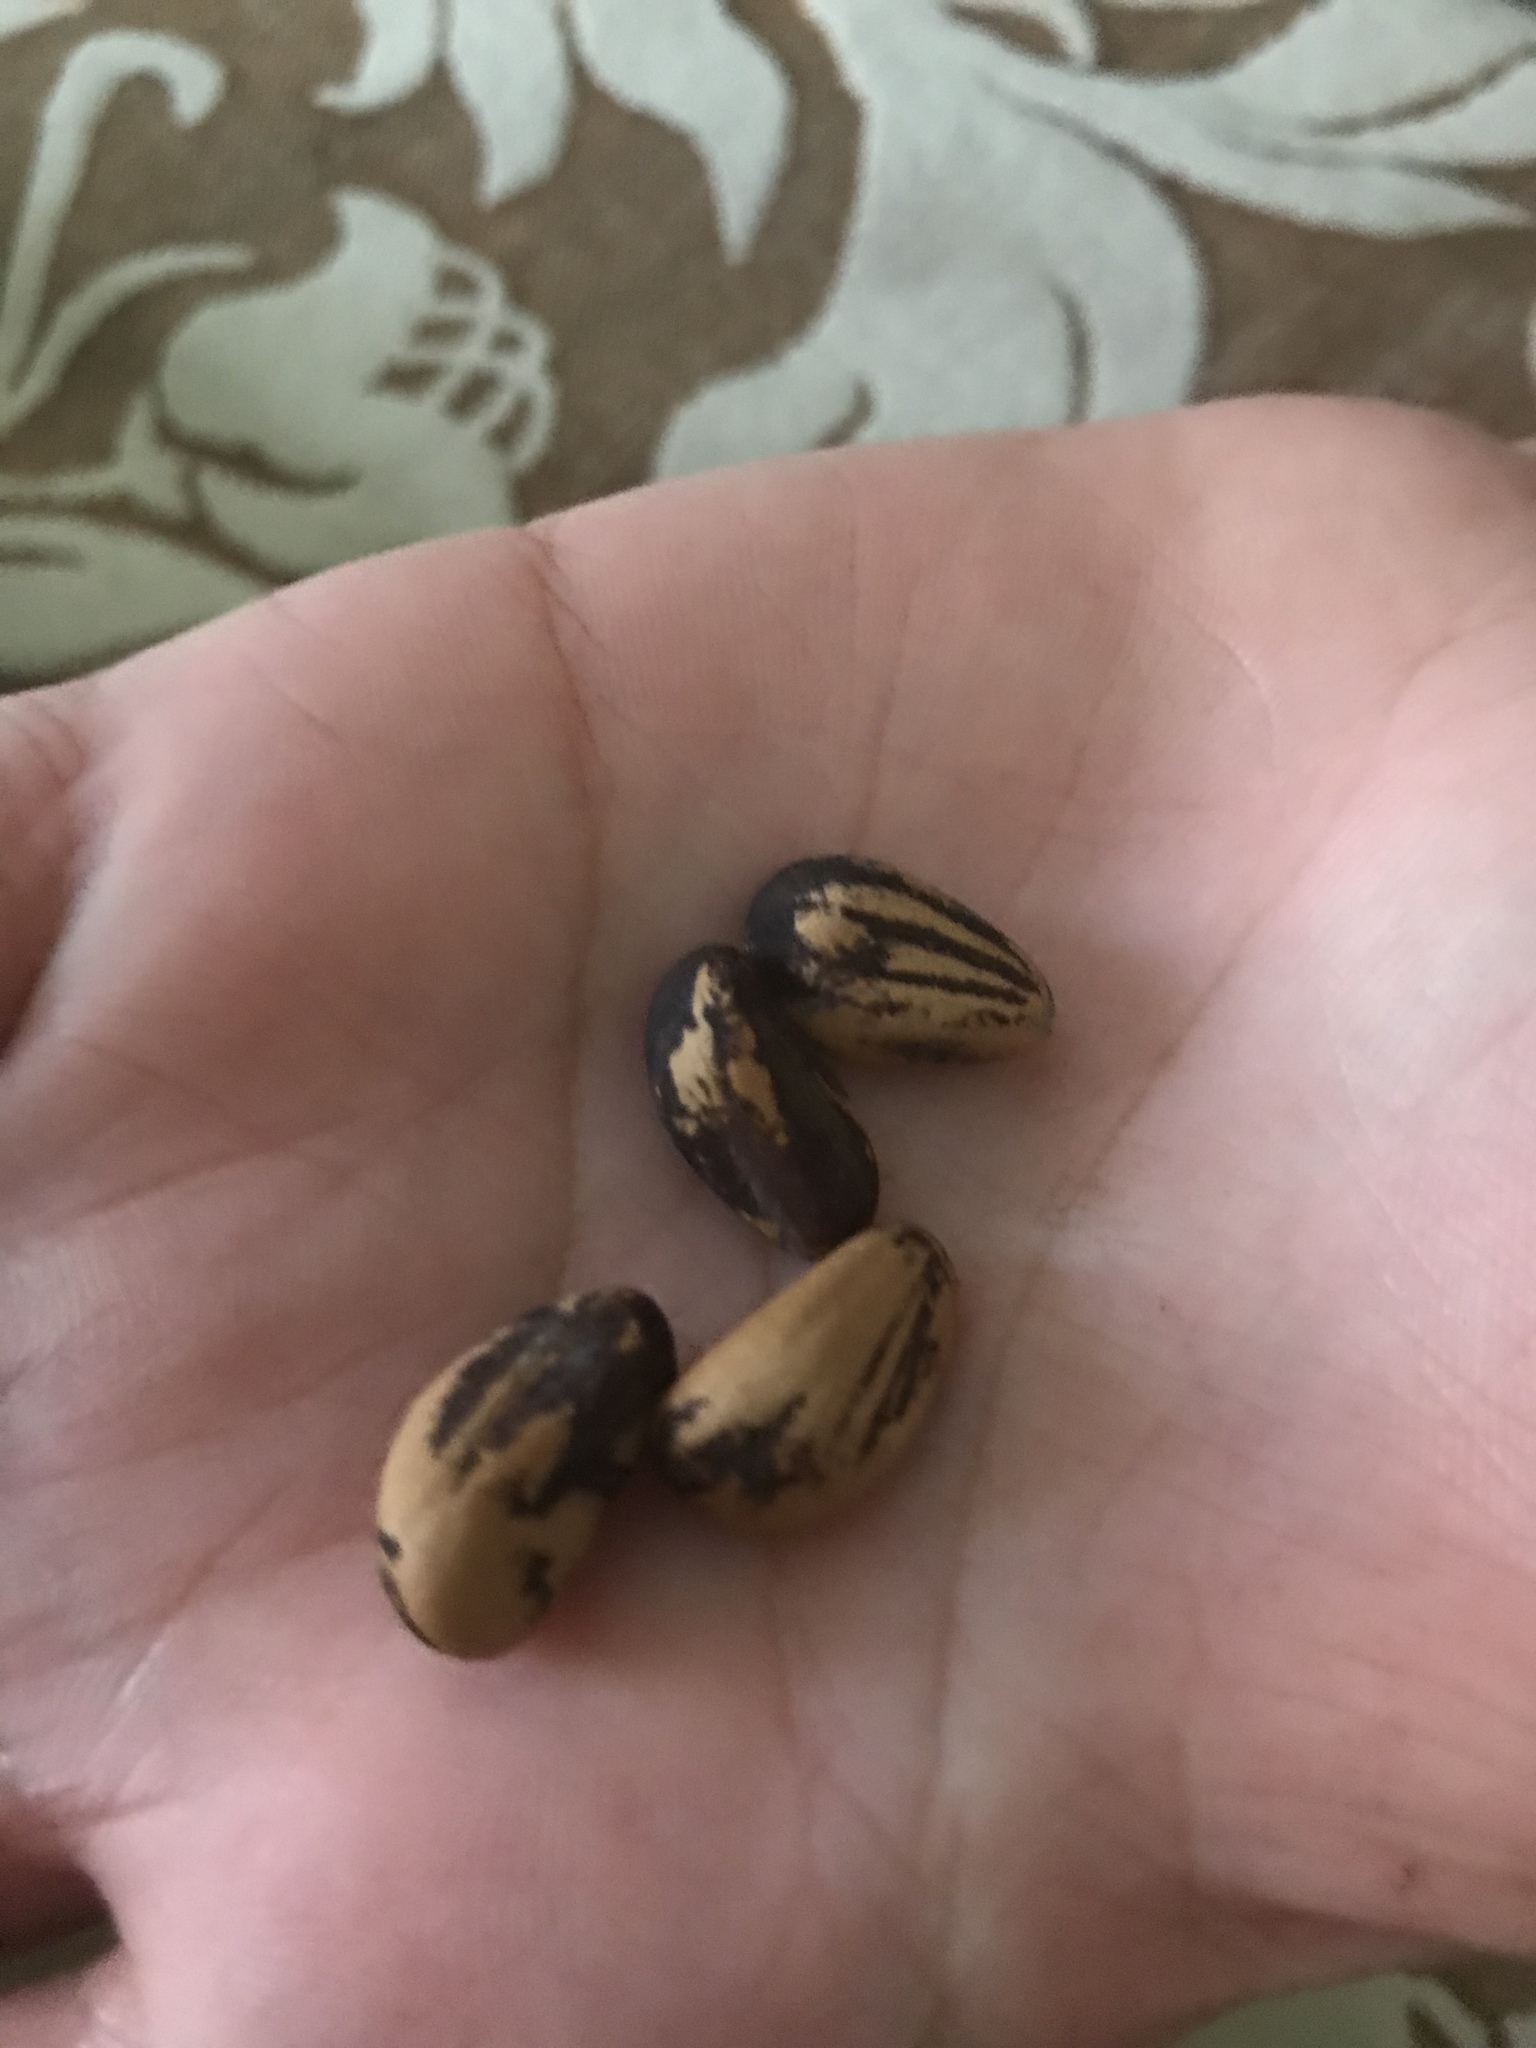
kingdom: Plantae
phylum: Tracheophyta
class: Pinopsida
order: Pinales
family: Pinaceae
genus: Pinus
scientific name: Pinus pinea
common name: Italian stone pine
